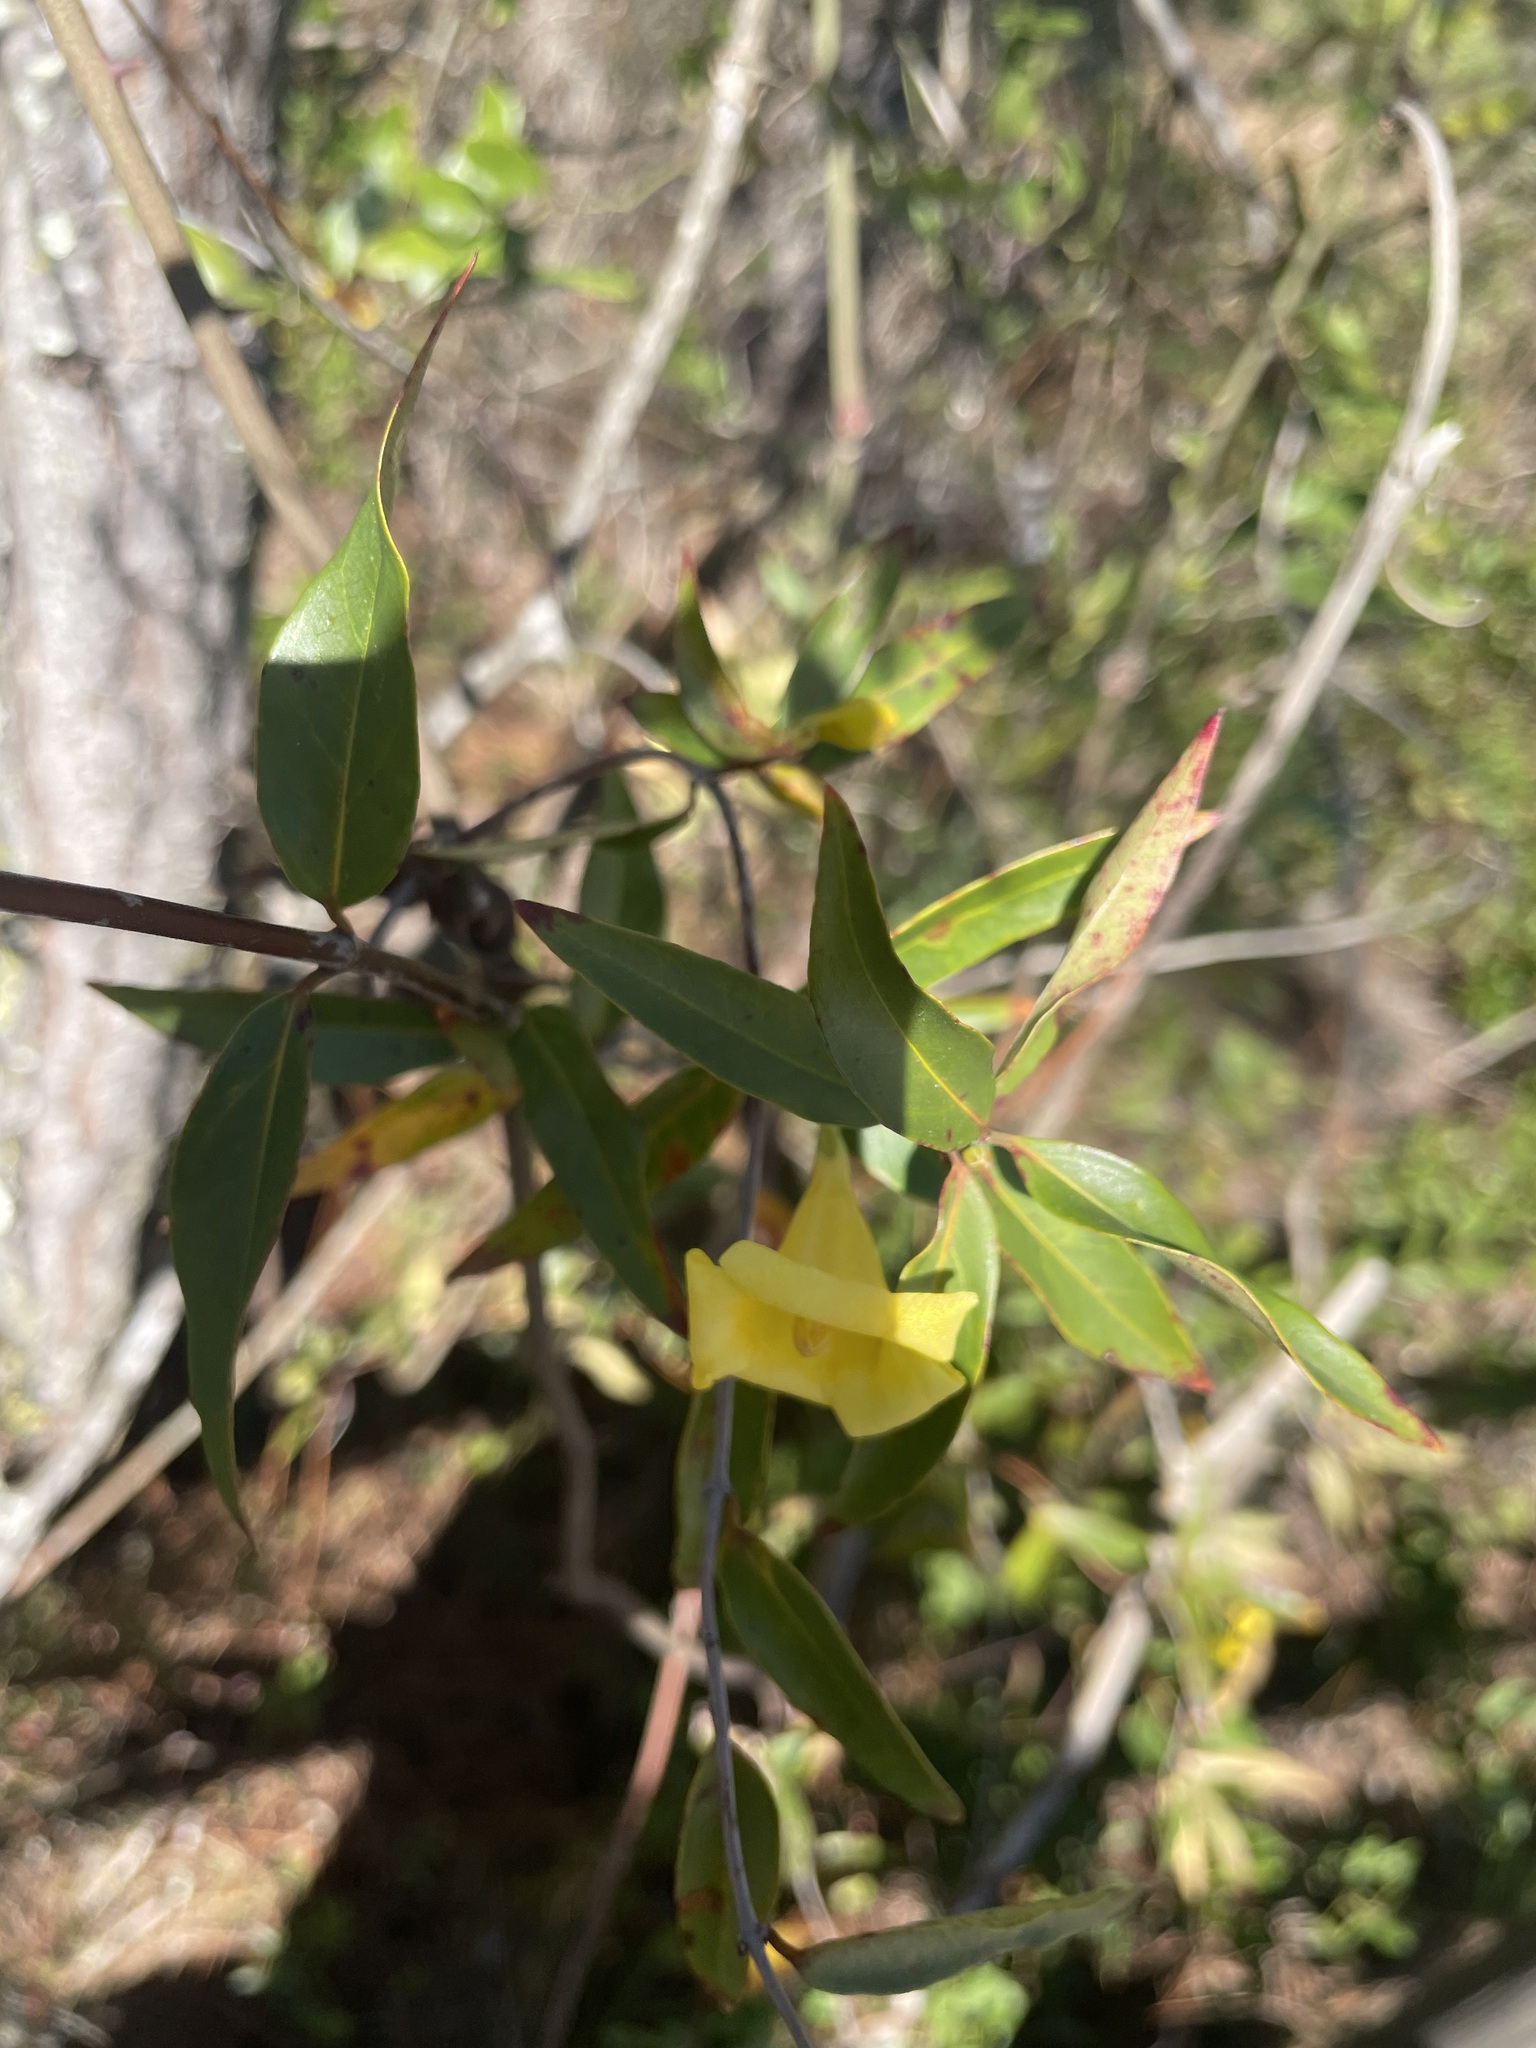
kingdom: Plantae
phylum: Tracheophyta
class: Magnoliopsida
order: Gentianales
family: Gelsemiaceae
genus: Gelsemium
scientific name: Gelsemium sempervirens
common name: Carolina-jasmine
